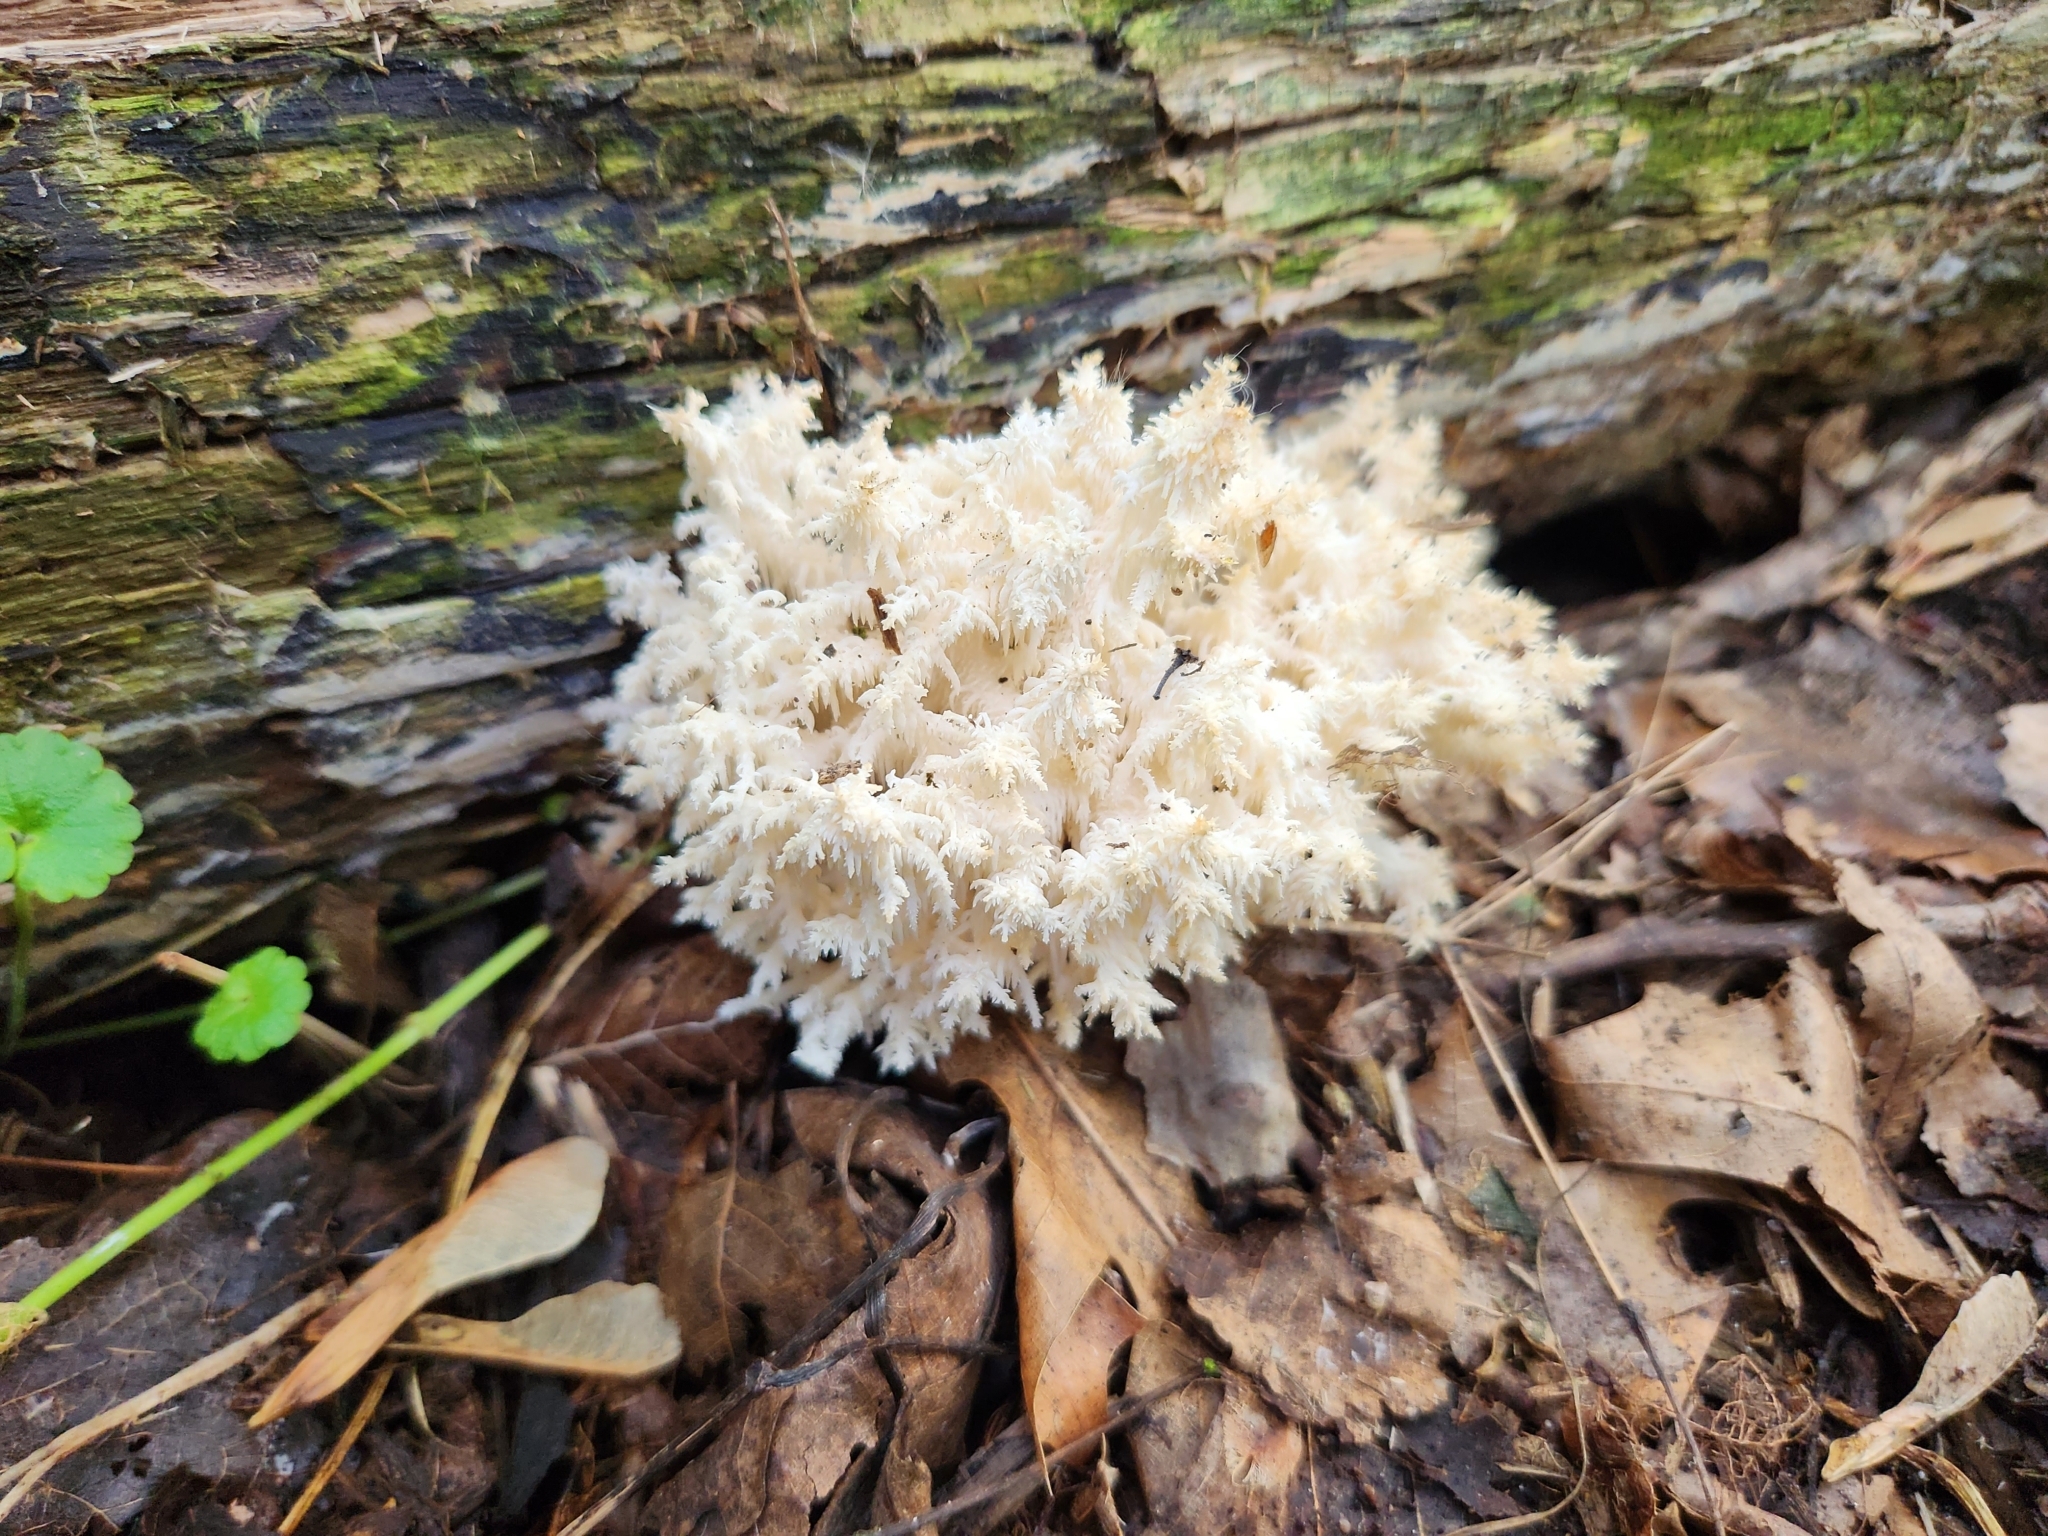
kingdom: Fungi
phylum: Basidiomycota
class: Agaricomycetes
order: Russulales
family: Hericiaceae
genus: Hericium
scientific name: Hericium coralloides
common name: Coral tooth
